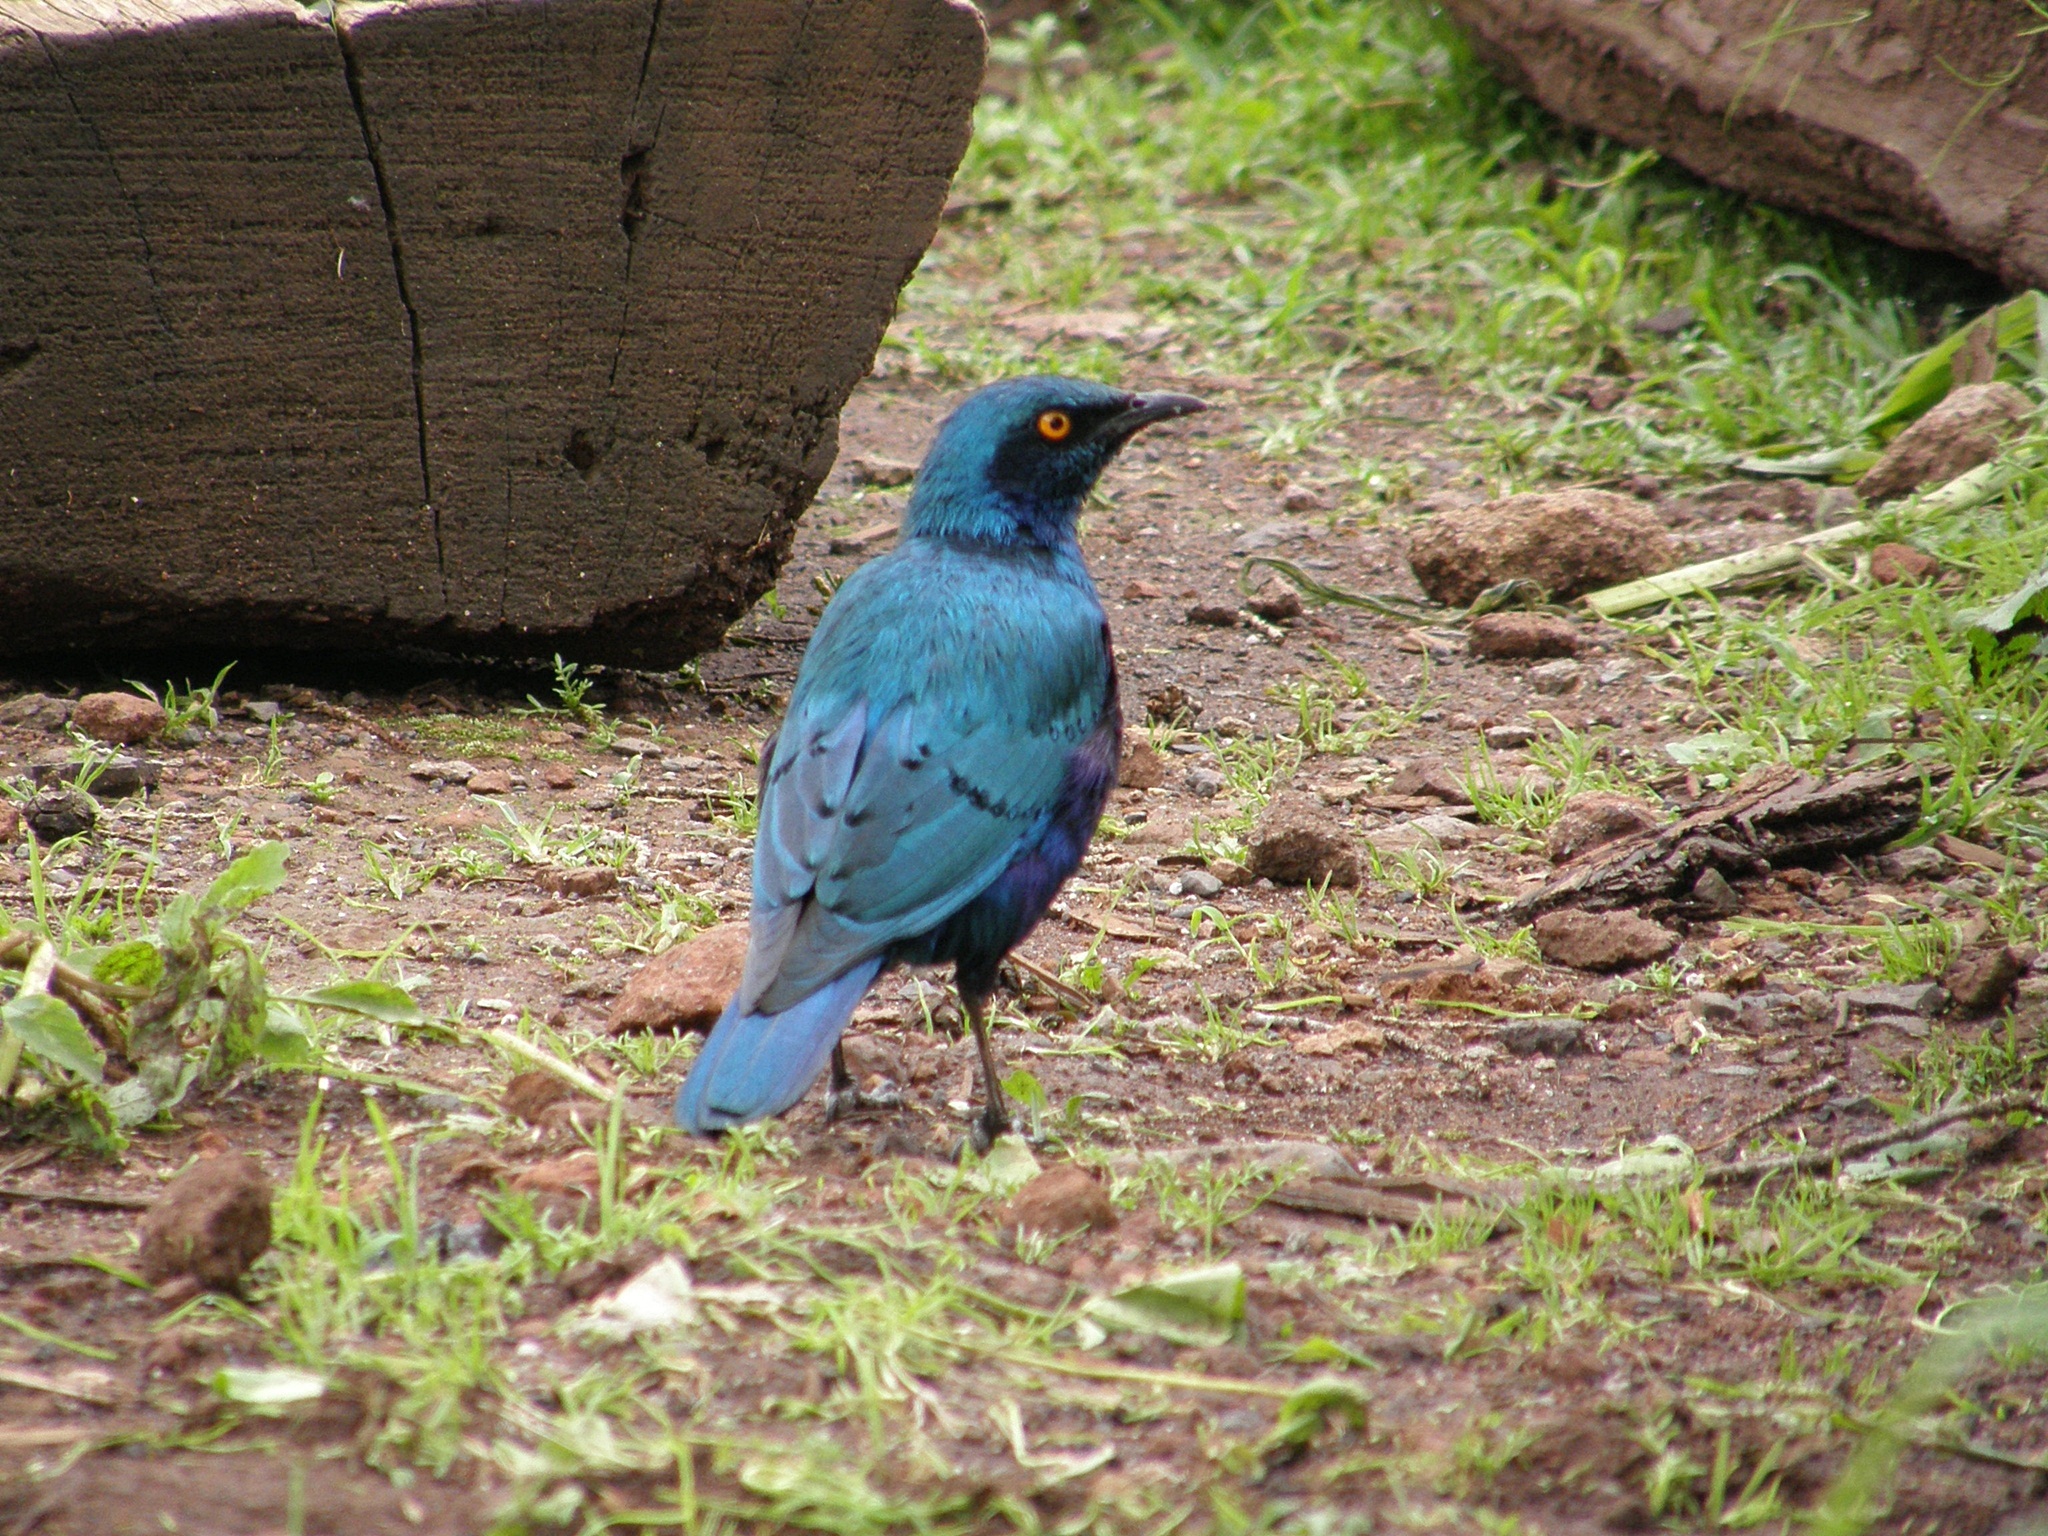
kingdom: Animalia
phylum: Chordata
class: Aves
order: Passeriformes
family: Sturnidae
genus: Lamprotornis
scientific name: Lamprotornis chalybaeus
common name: Greater blue-eared starling
